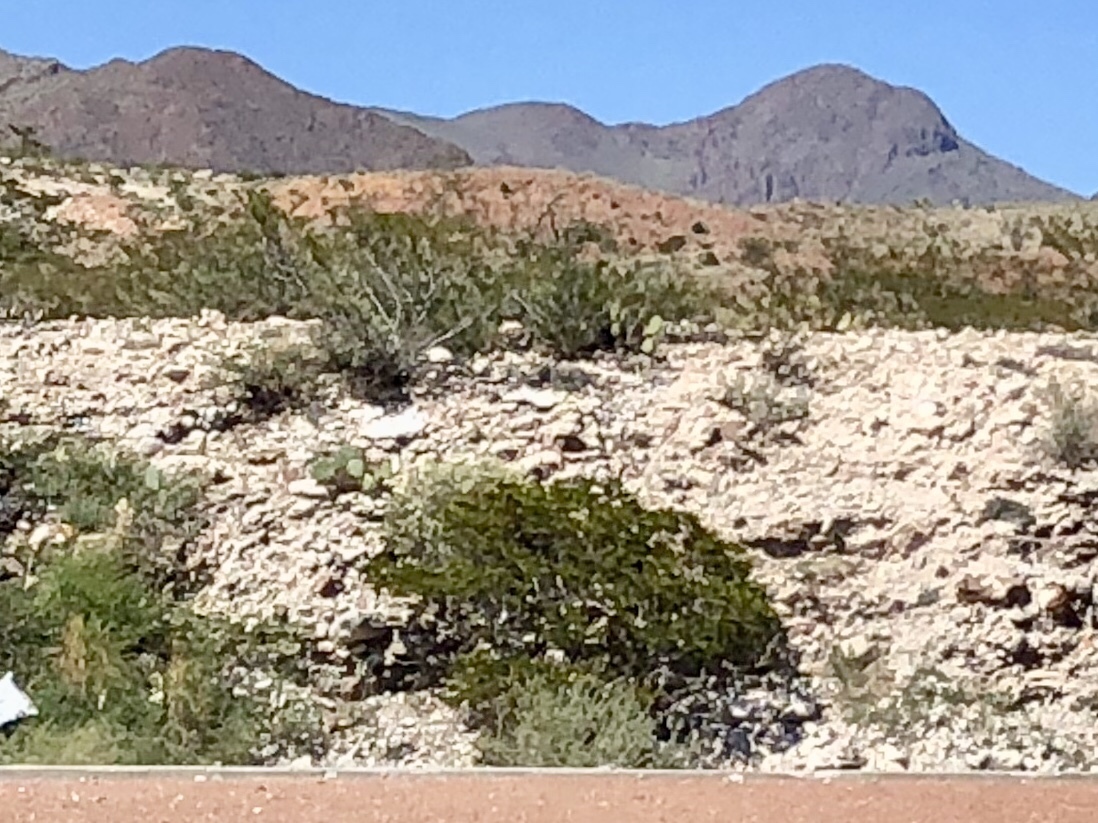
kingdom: Plantae
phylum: Tracheophyta
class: Magnoliopsida
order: Zygophyllales
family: Zygophyllaceae
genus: Larrea
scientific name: Larrea tridentata
